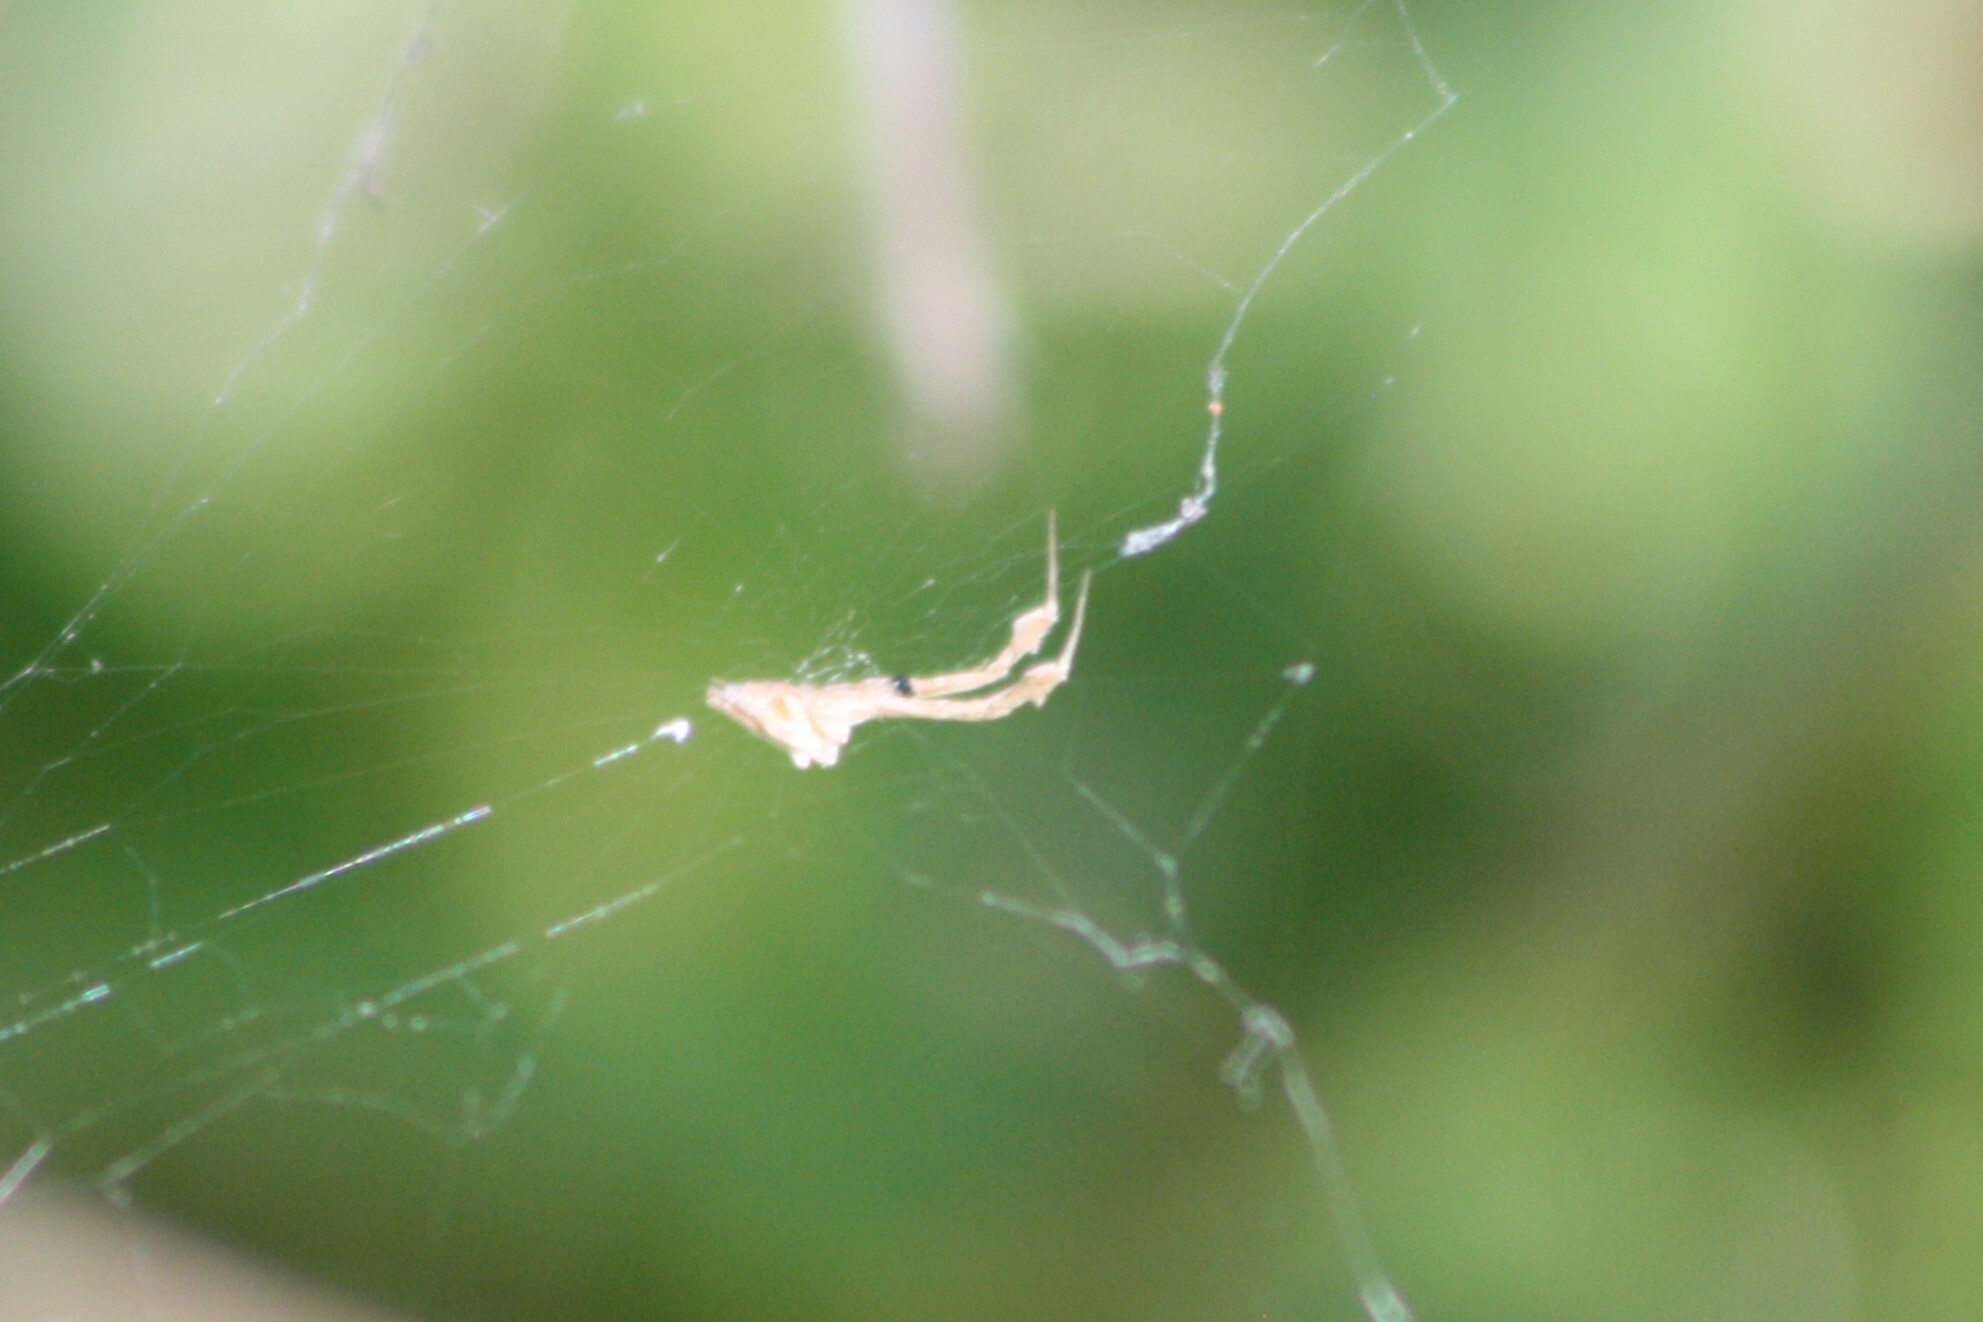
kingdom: Animalia
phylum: Arthropoda
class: Arachnida
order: Araneae
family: Uloboridae
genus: Uloborus
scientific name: Uloborus glomosus
